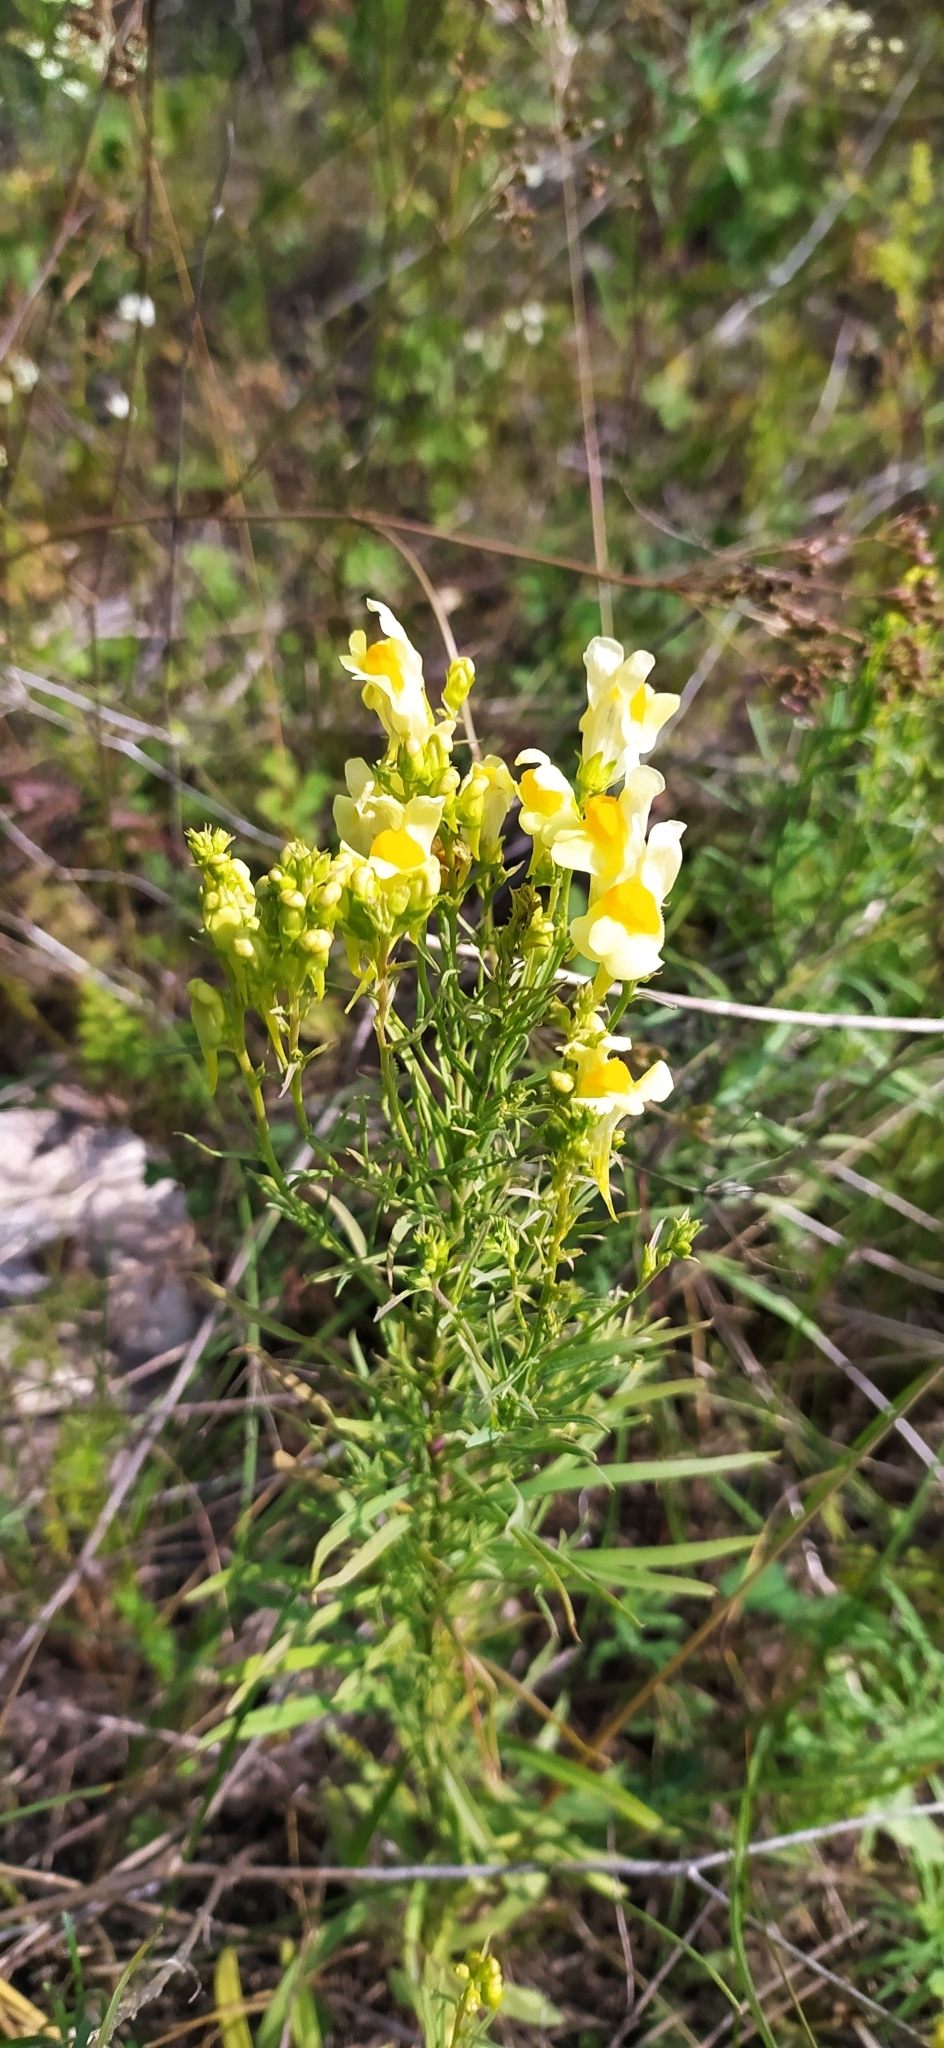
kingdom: Plantae
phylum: Tracheophyta
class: Magnoliopsida
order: Lamiales
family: Plantaginaceae
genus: Linaria
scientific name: Linaria vulgaris
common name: Butter and eggs
